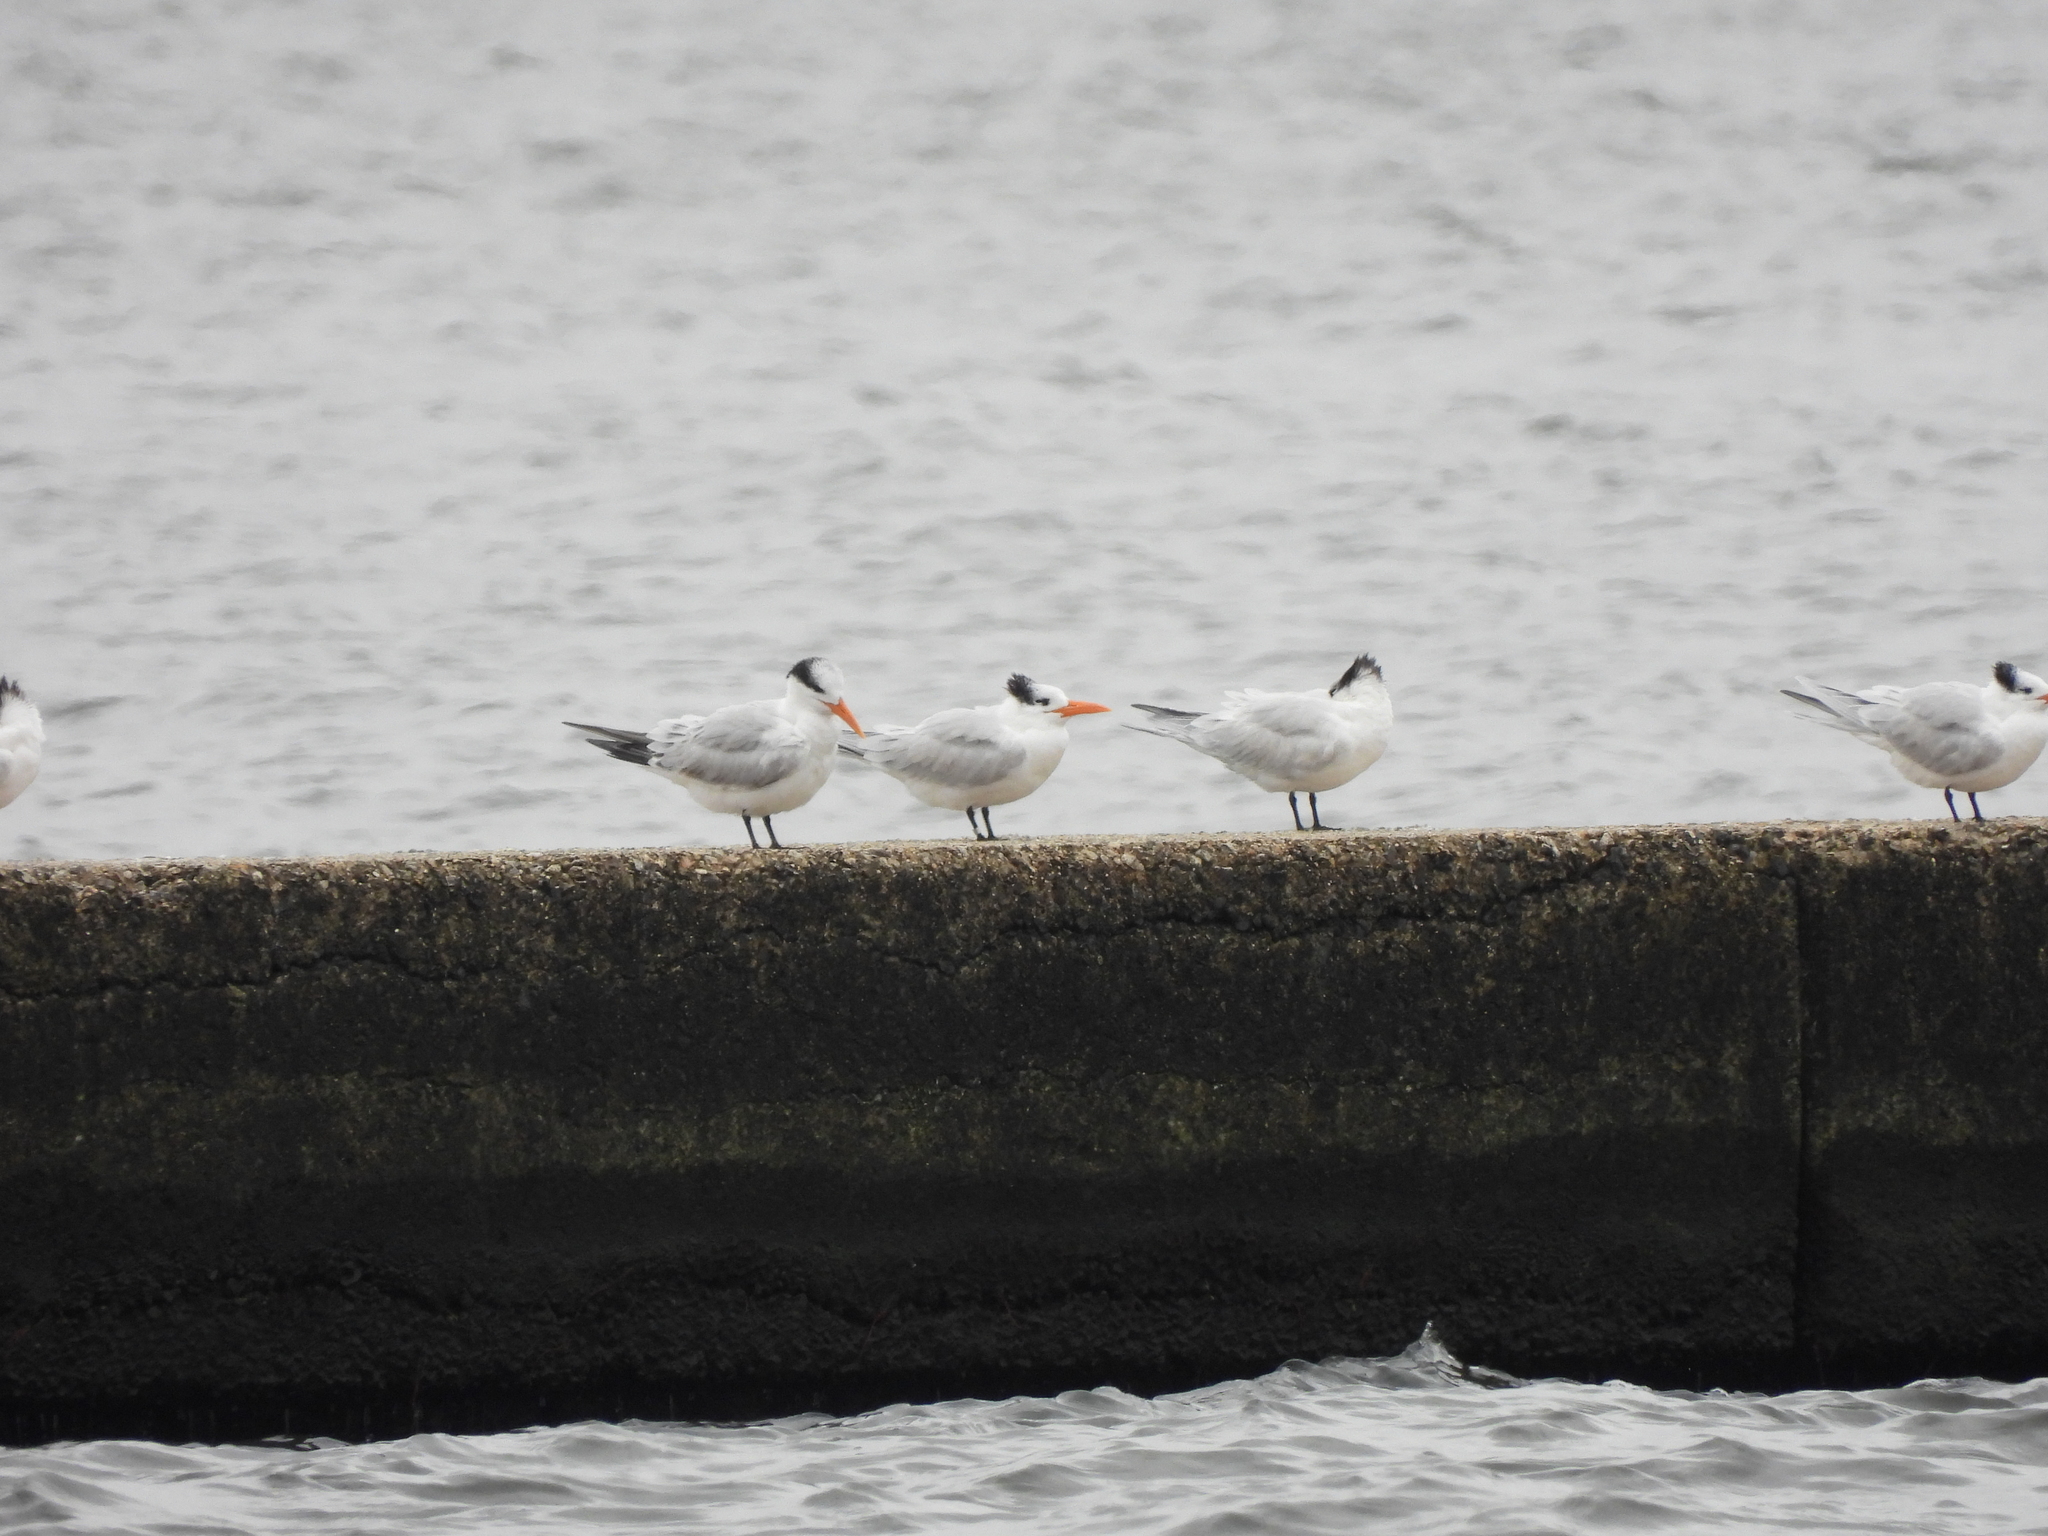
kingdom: Animalia
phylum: Chordata
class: Aves
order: Charadriiformes
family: Laridae
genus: Thalasseus
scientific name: Thalasseus maximus
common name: Royal tern
